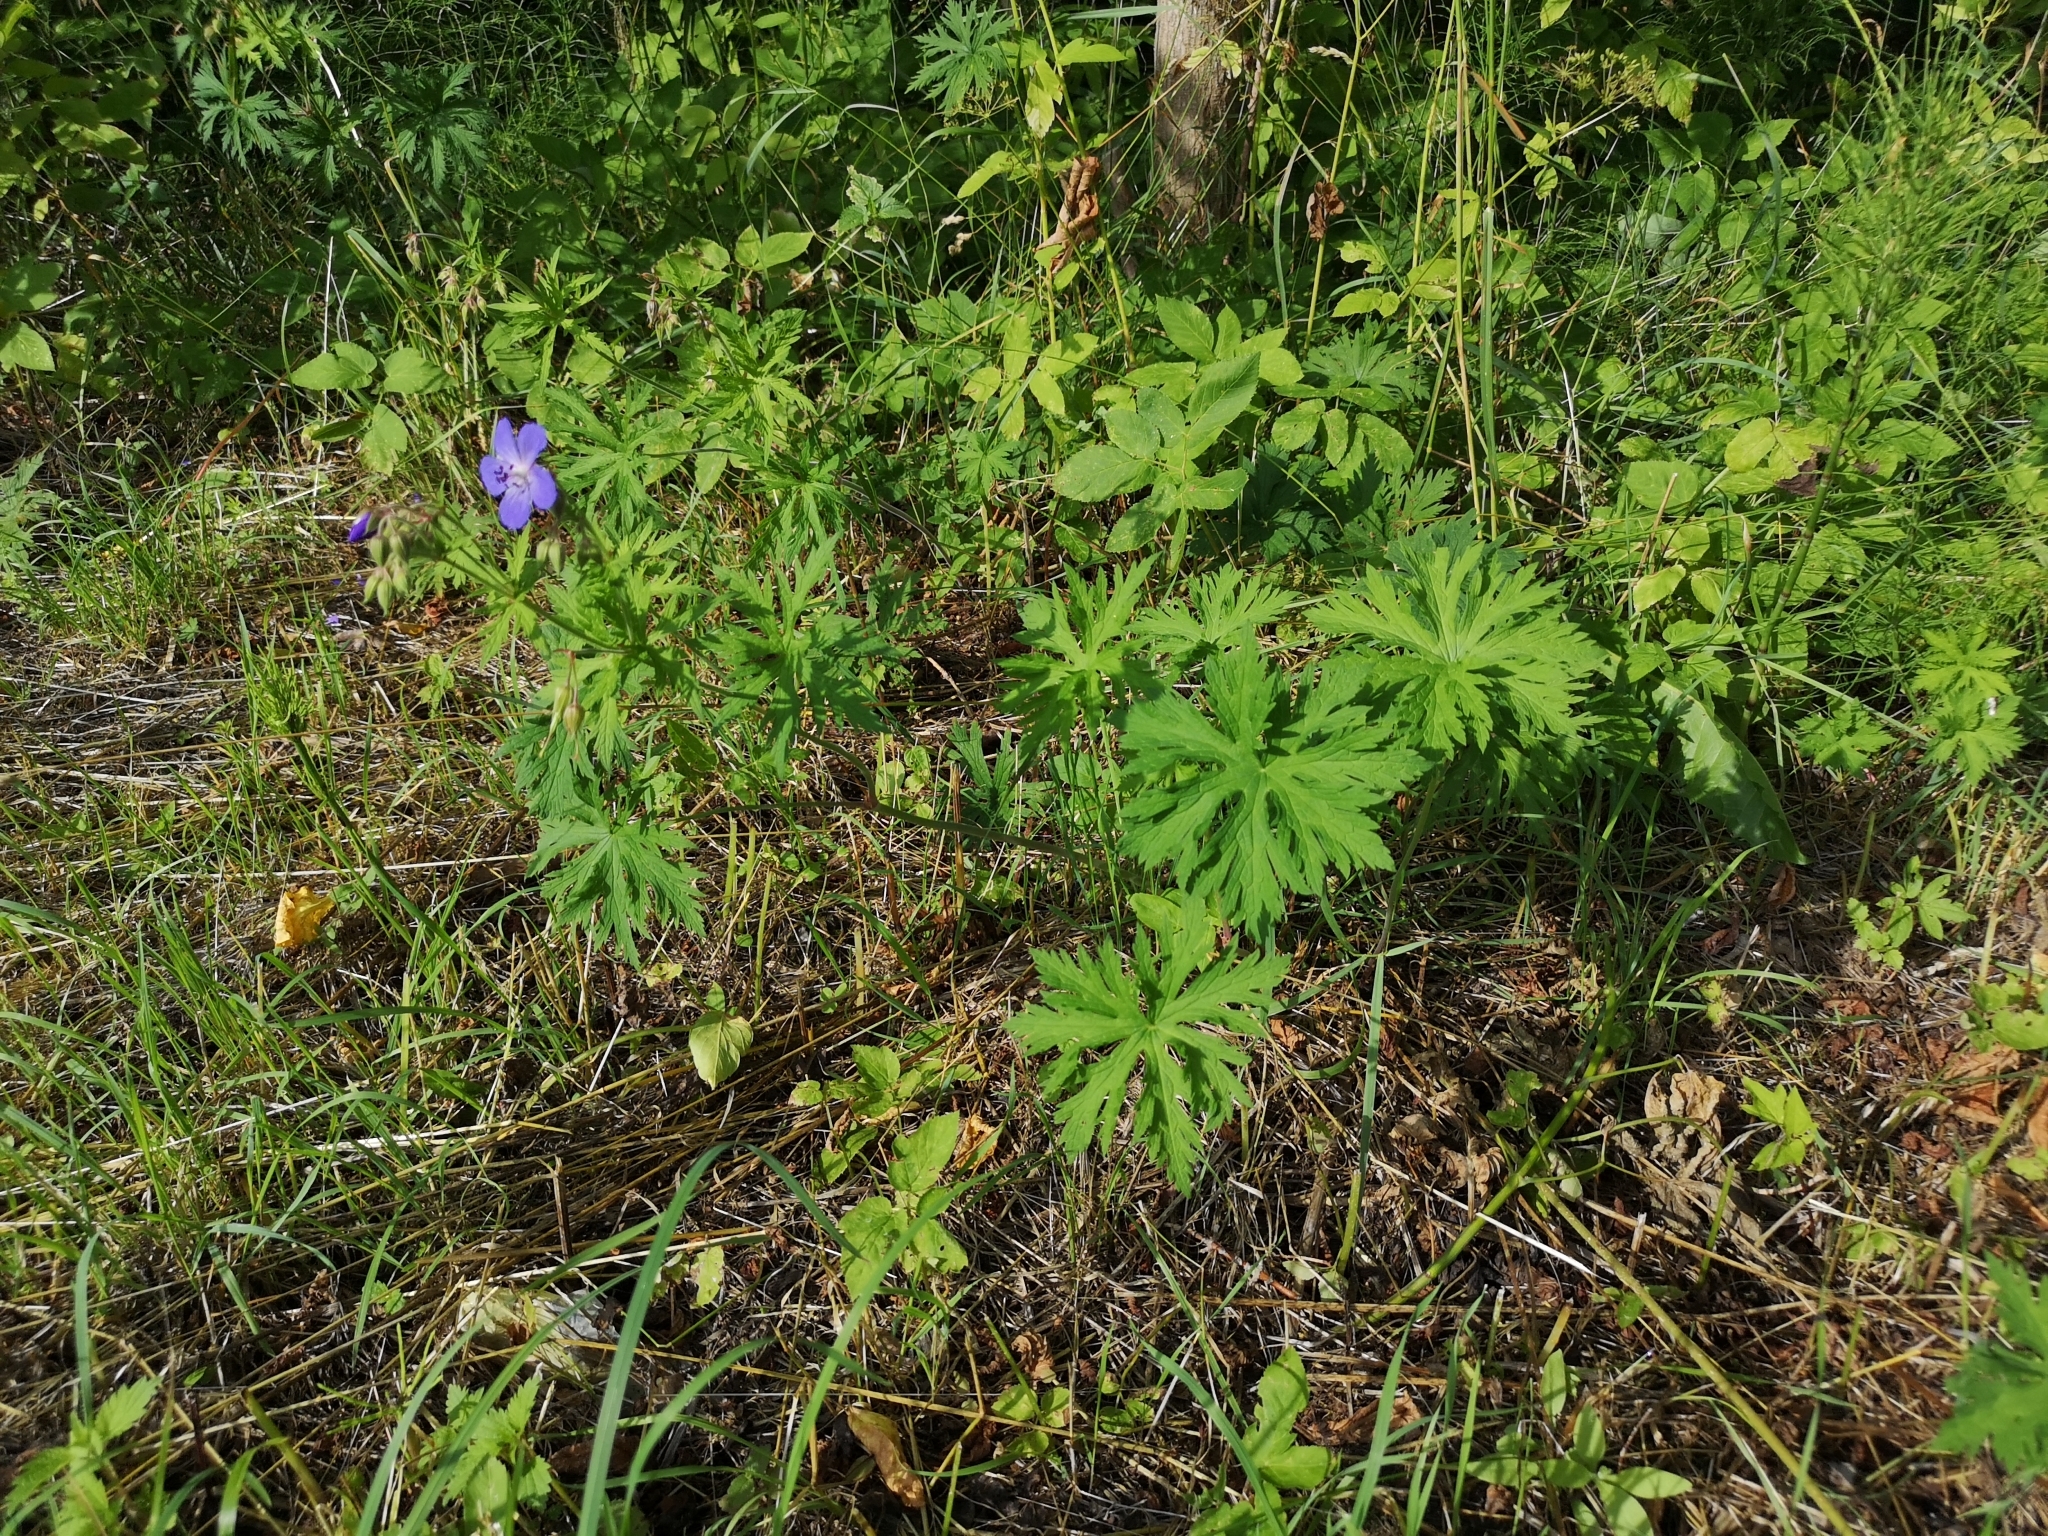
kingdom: Plantae
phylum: Tracheophyta
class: Magnoliopsida
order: Geraniales
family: Geraniaceae
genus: Geranium
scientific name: Geranium pratense
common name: Meadow crane's-bill
